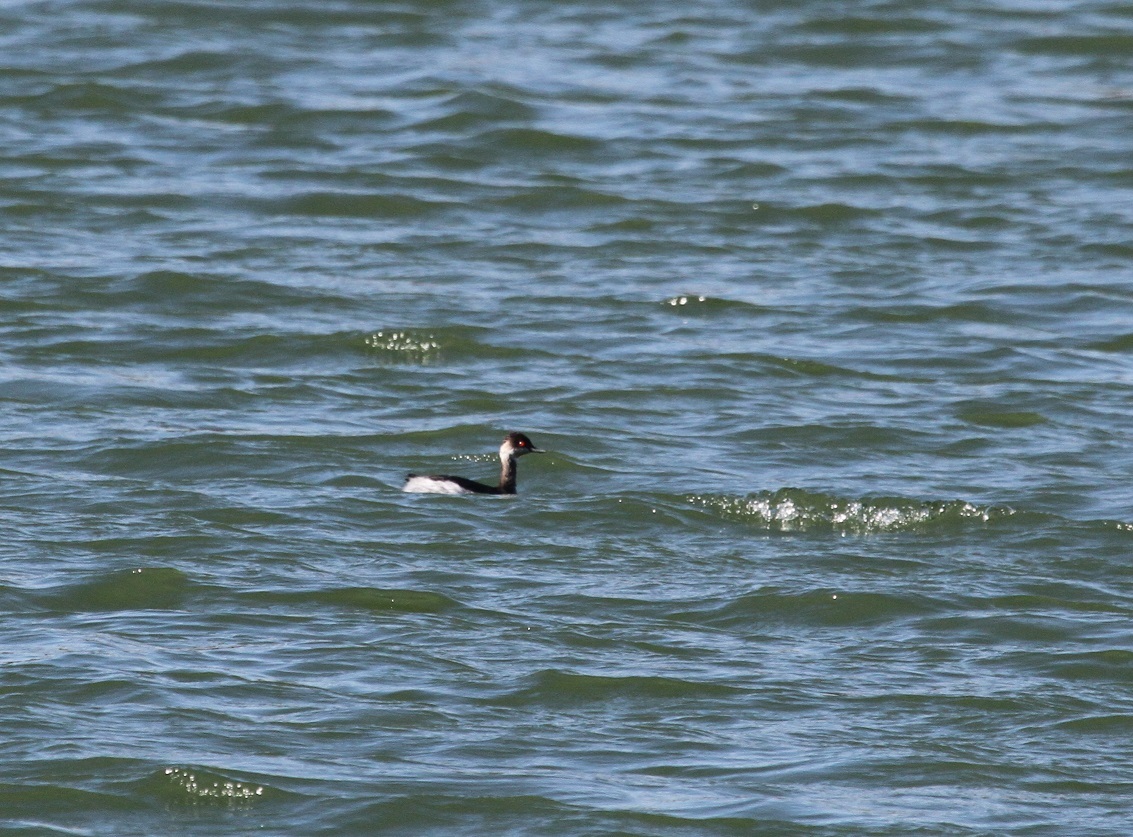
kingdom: Animalia
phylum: Chordata
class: Aves
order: Podicipediformes
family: Podicipedidae
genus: Podiceps
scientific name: Podiceps nigricollis
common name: Black-necked grebe
